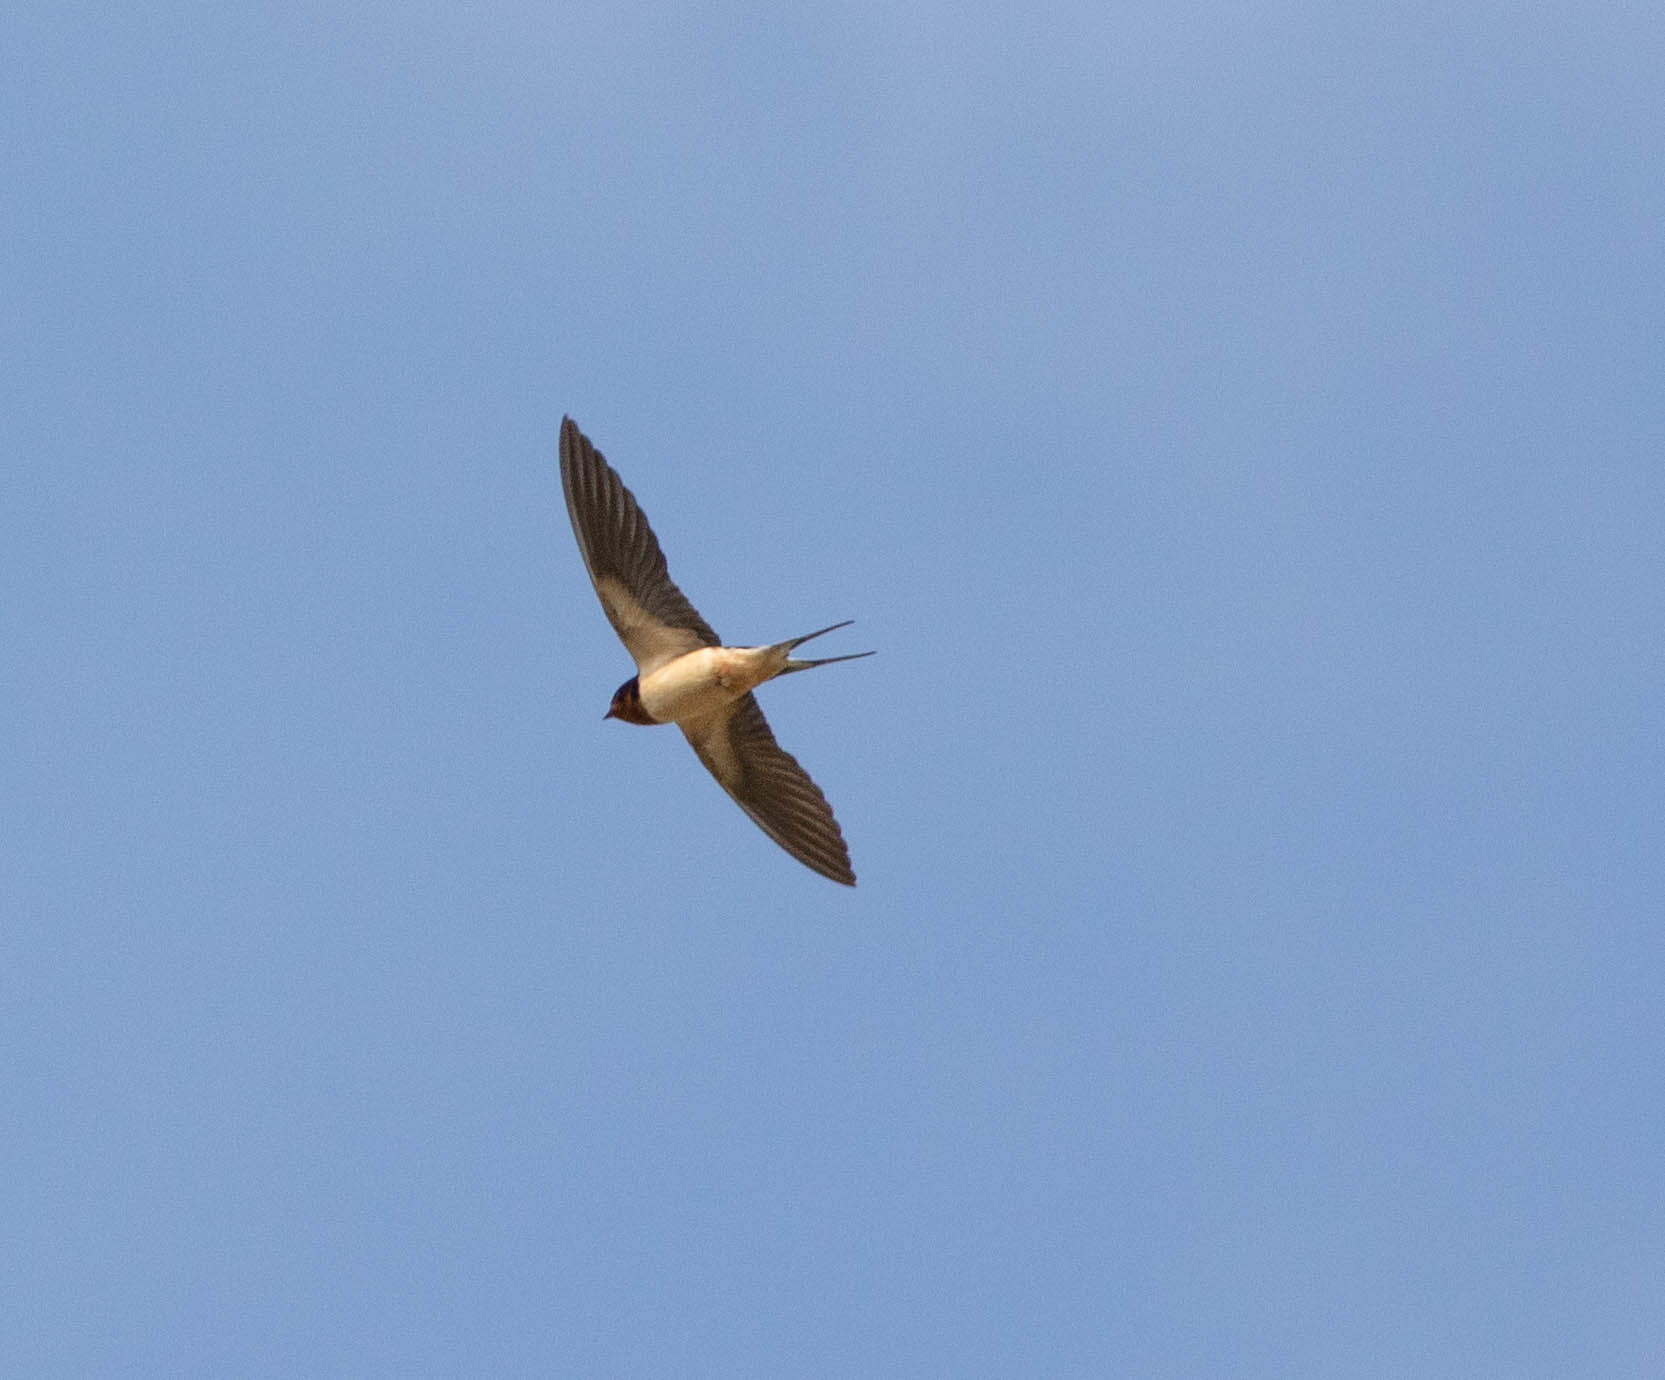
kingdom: Animalia
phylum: Chordata
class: Aves
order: Passeriformes
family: Hirundinidae
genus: Hirundo
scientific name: Hirundo rustica
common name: Barn swallow
